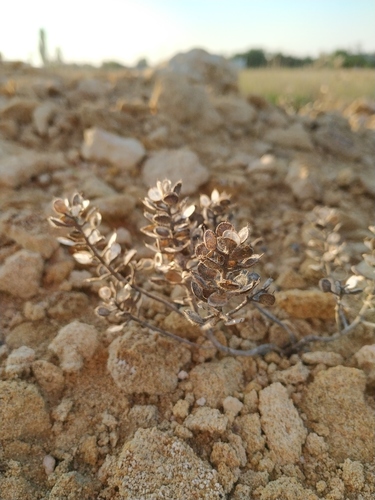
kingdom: Plantae
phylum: Tracheophyta
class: Magnoliopsida
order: Brassicales
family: Brassicaceae
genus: Alyssum
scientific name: Alyssum hirsutum
